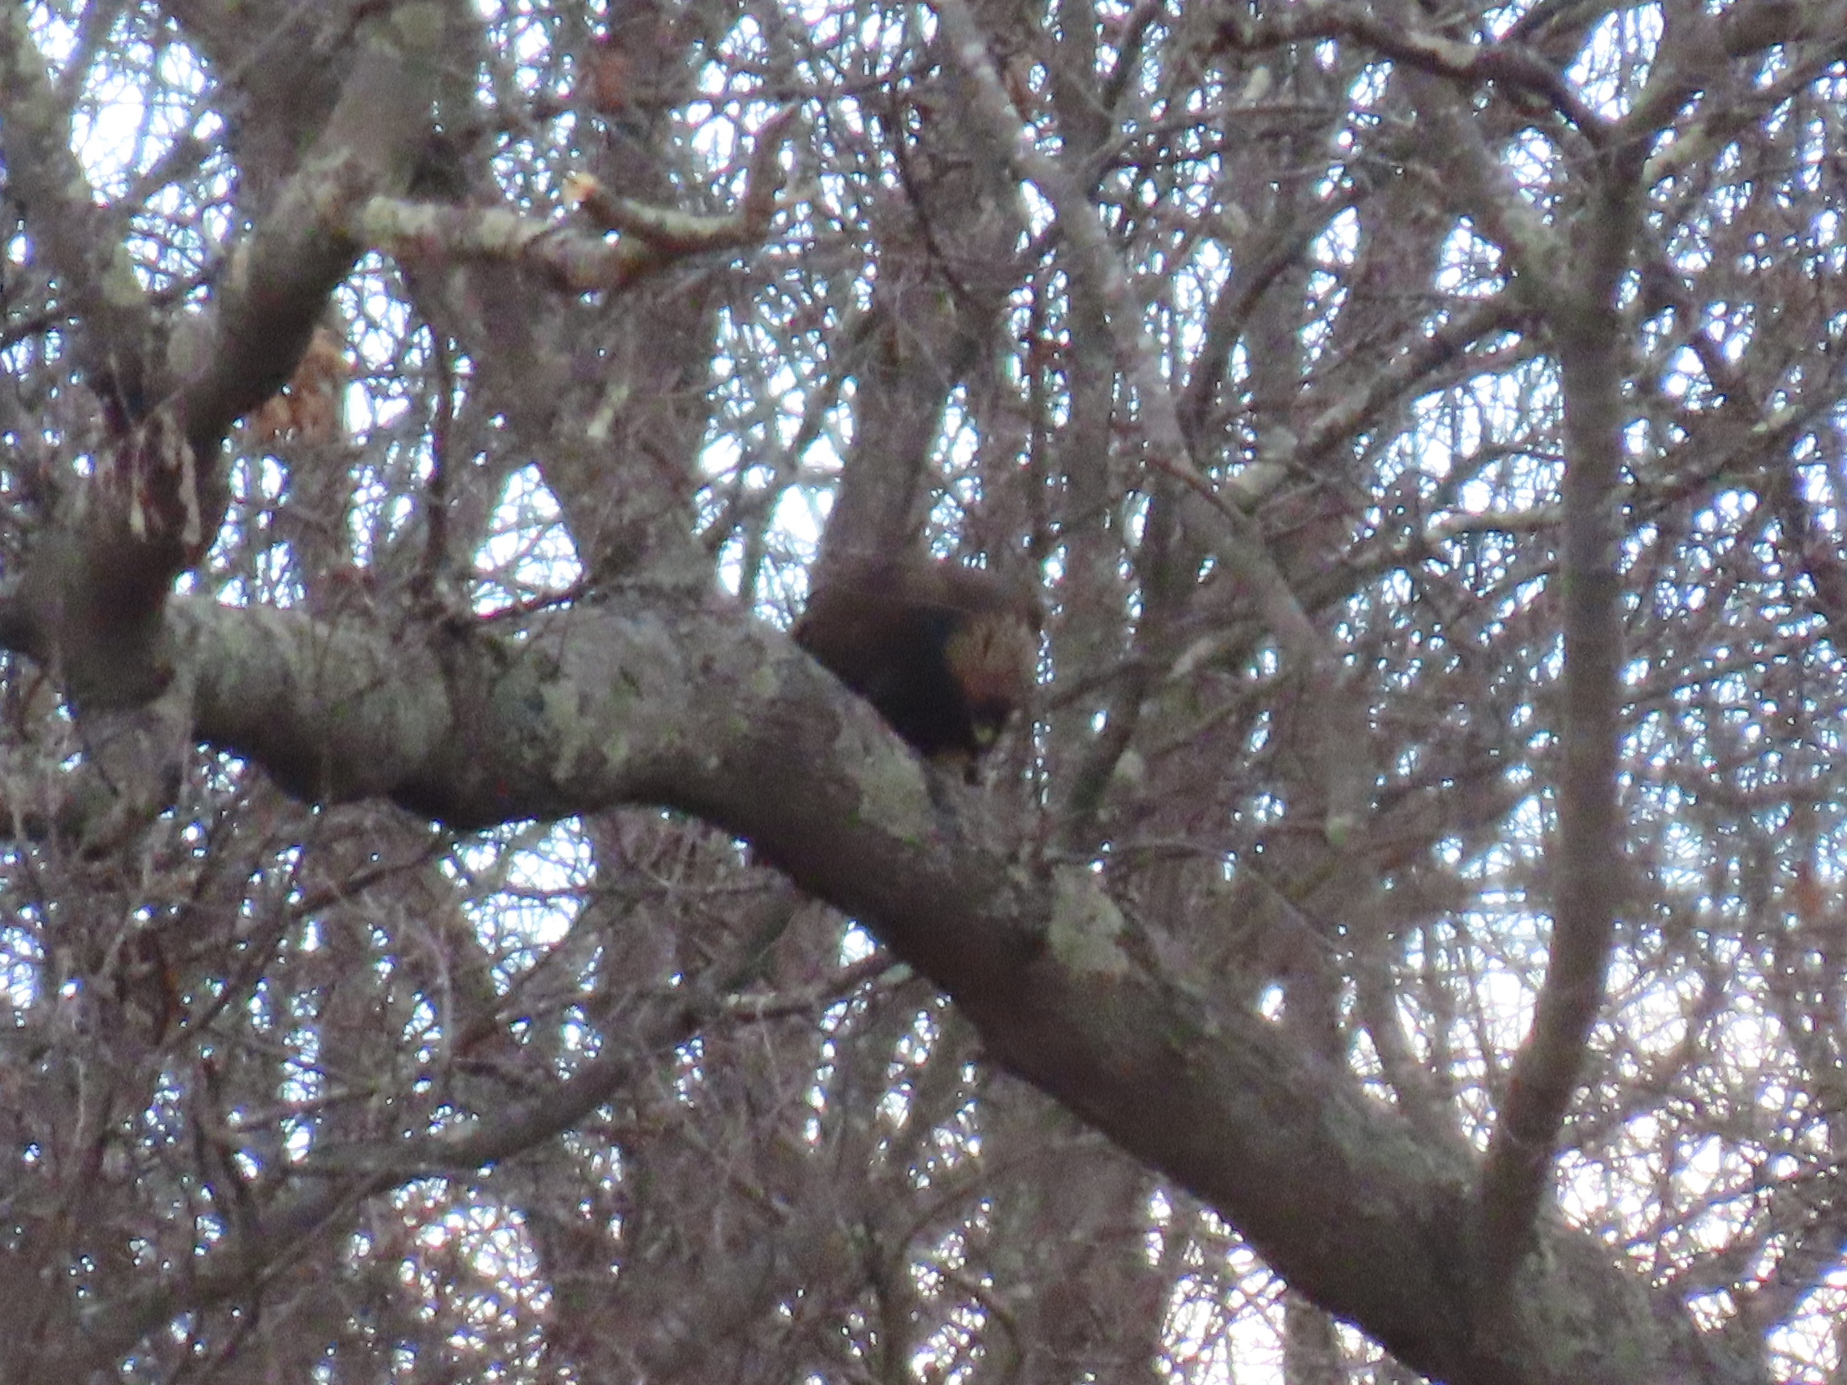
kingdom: Animalia
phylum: Chordata
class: Aves
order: Accipitriformes
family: Accipitridae
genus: Aquila
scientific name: Aquila chrysaetos
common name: Golden eagle
